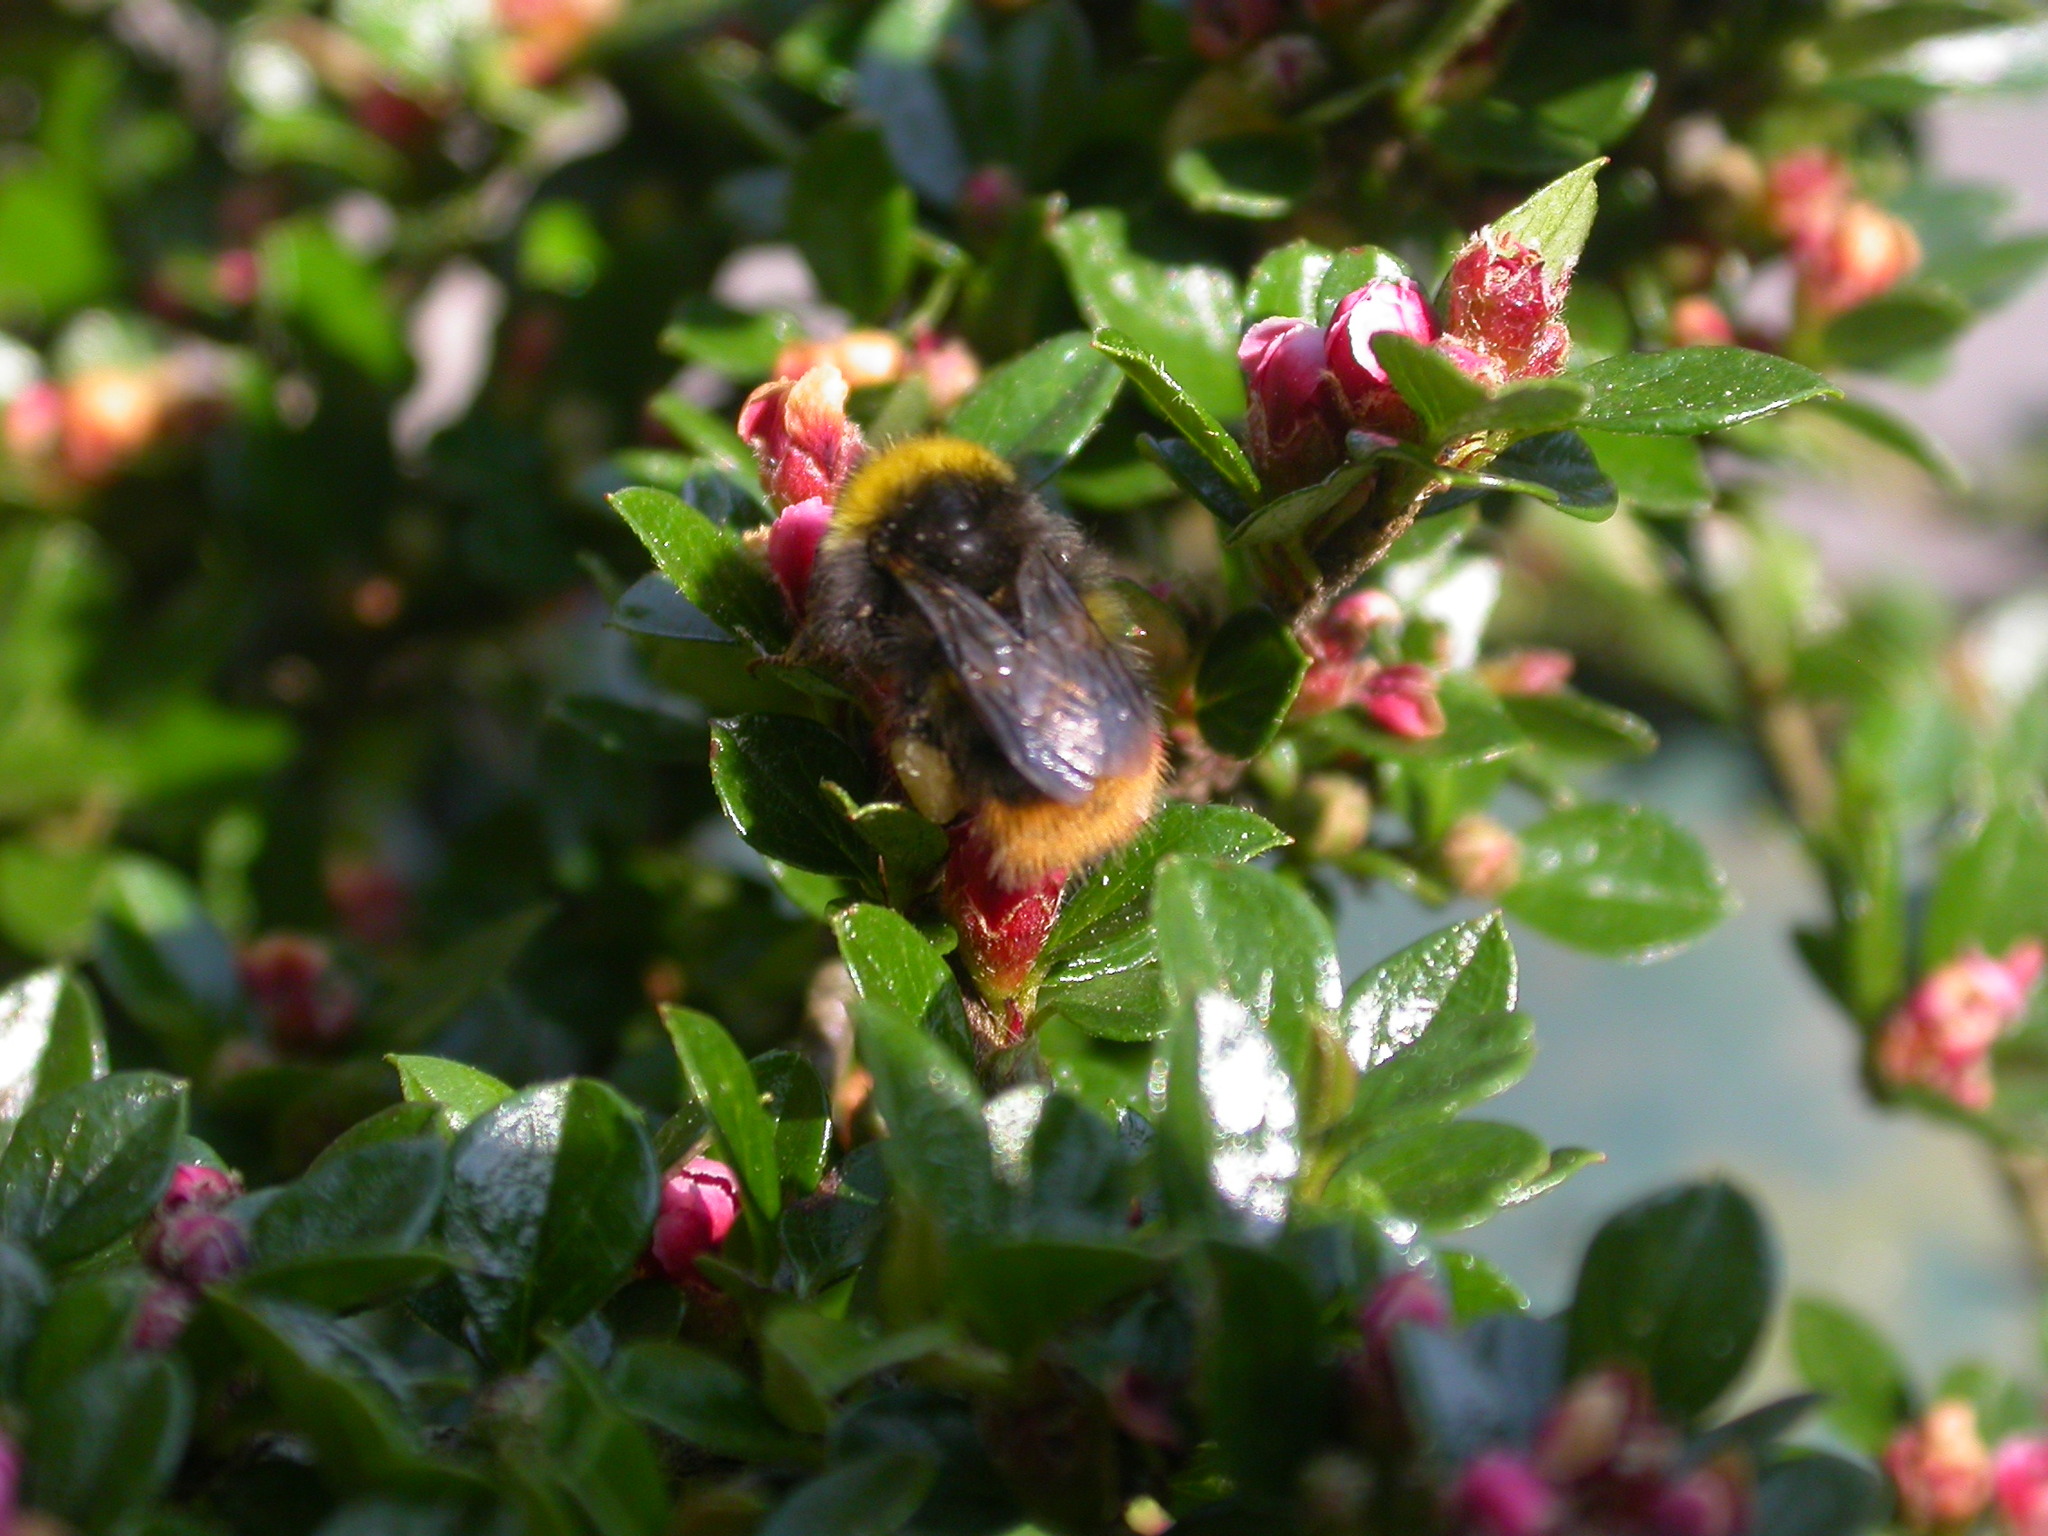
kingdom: Animalia
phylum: Arthropoda
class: Insecta
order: Hymenoptera
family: Apidae
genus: Bombus
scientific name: Bombus pratorum
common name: Early humble-bee
